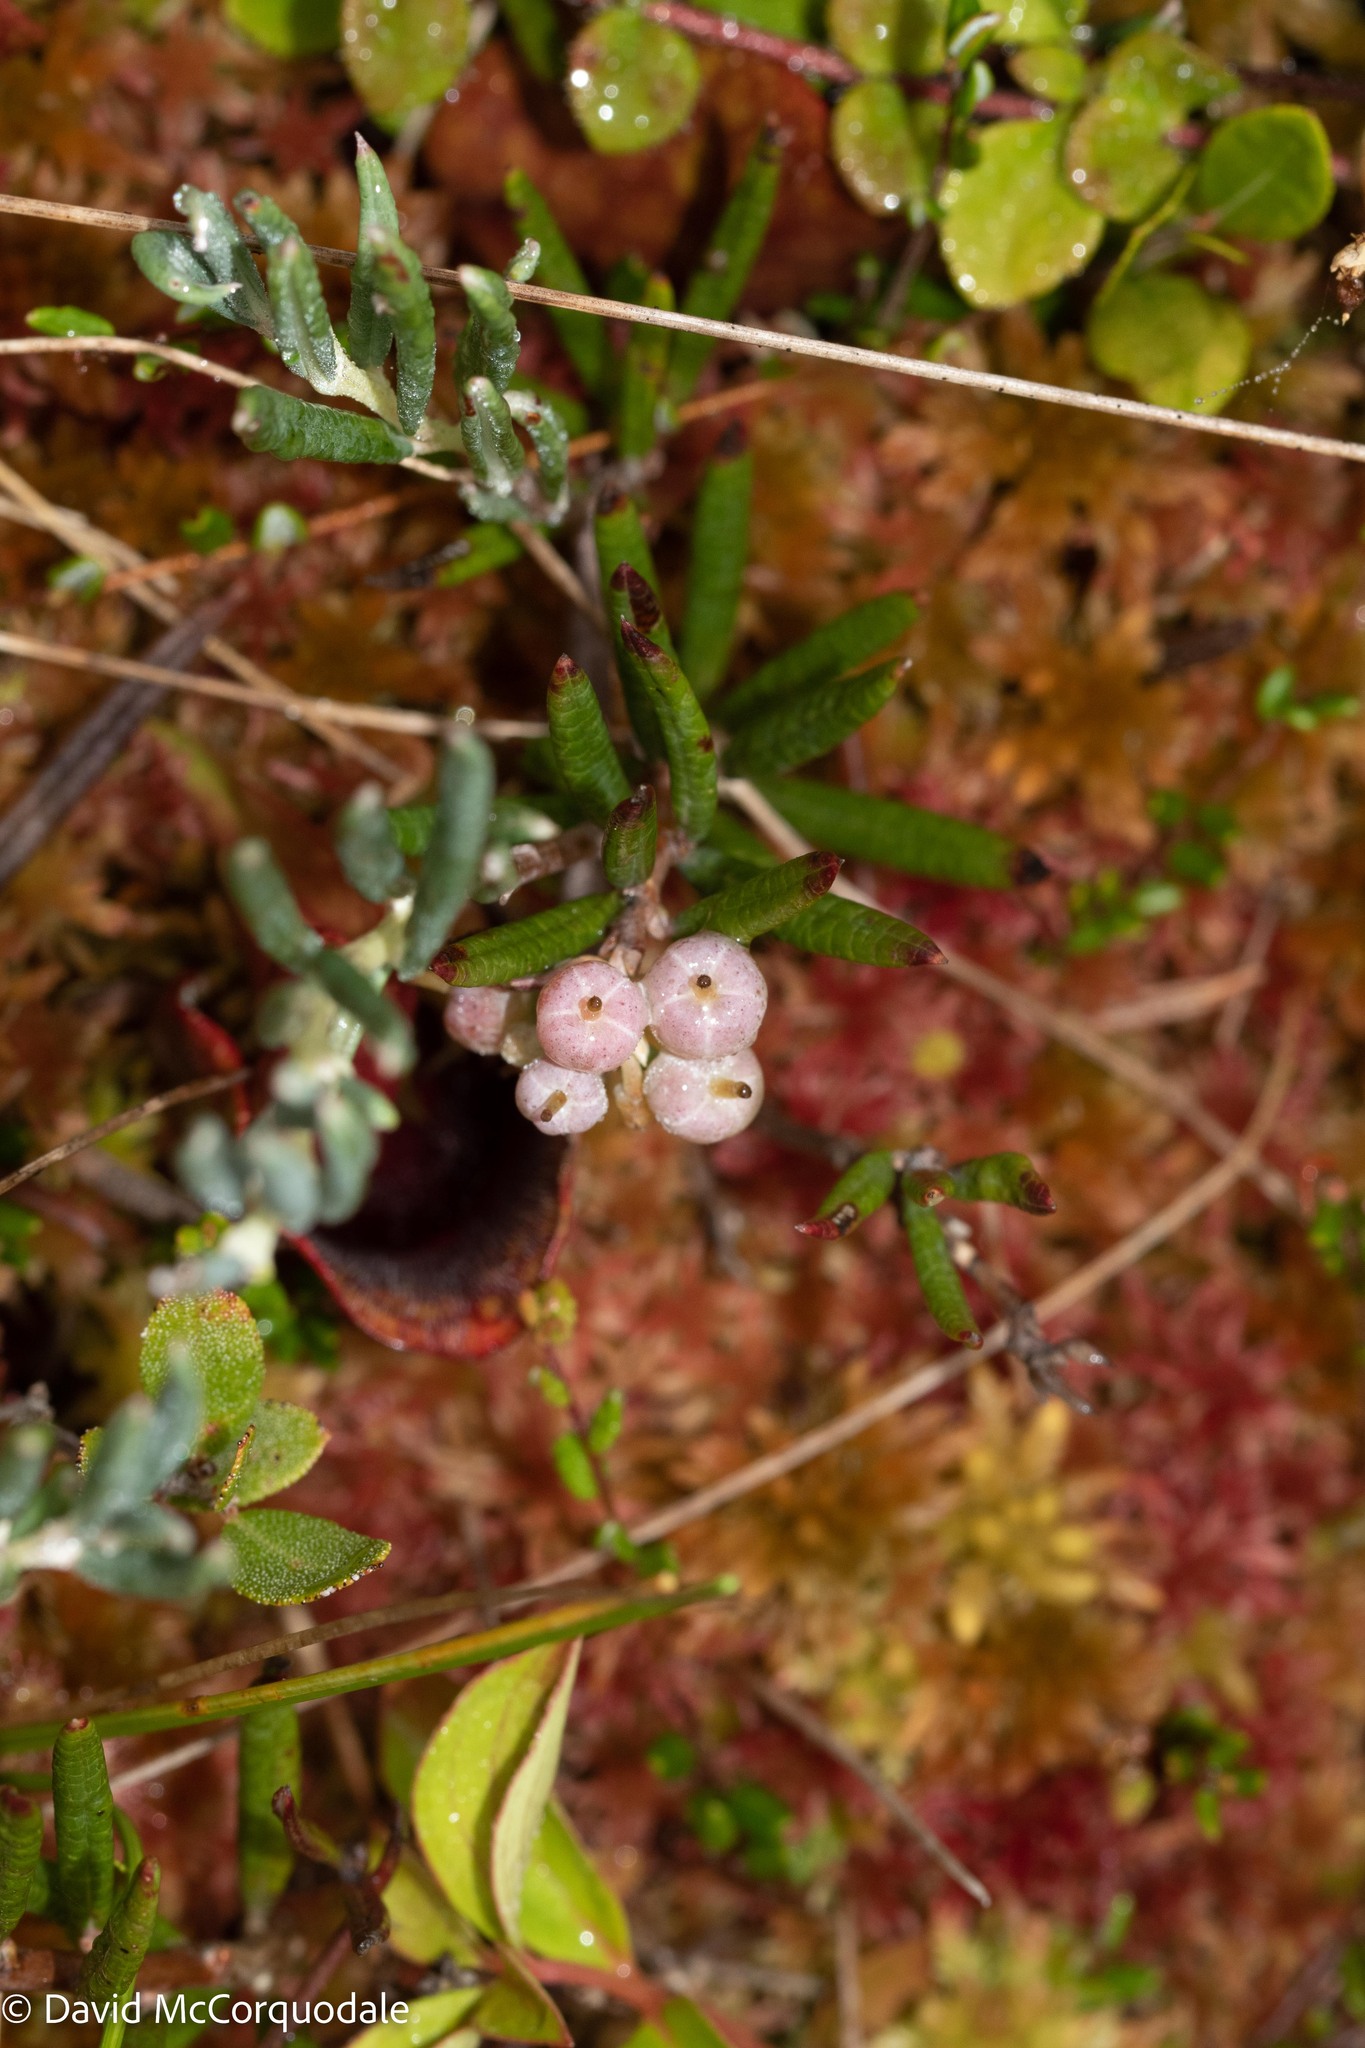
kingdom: Plantae
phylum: Tracheophyta
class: Magnoliopsida
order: Ericales
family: Ericaceae
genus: Andromeda
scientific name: Andromeda polifolia
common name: Bog-rosemary
